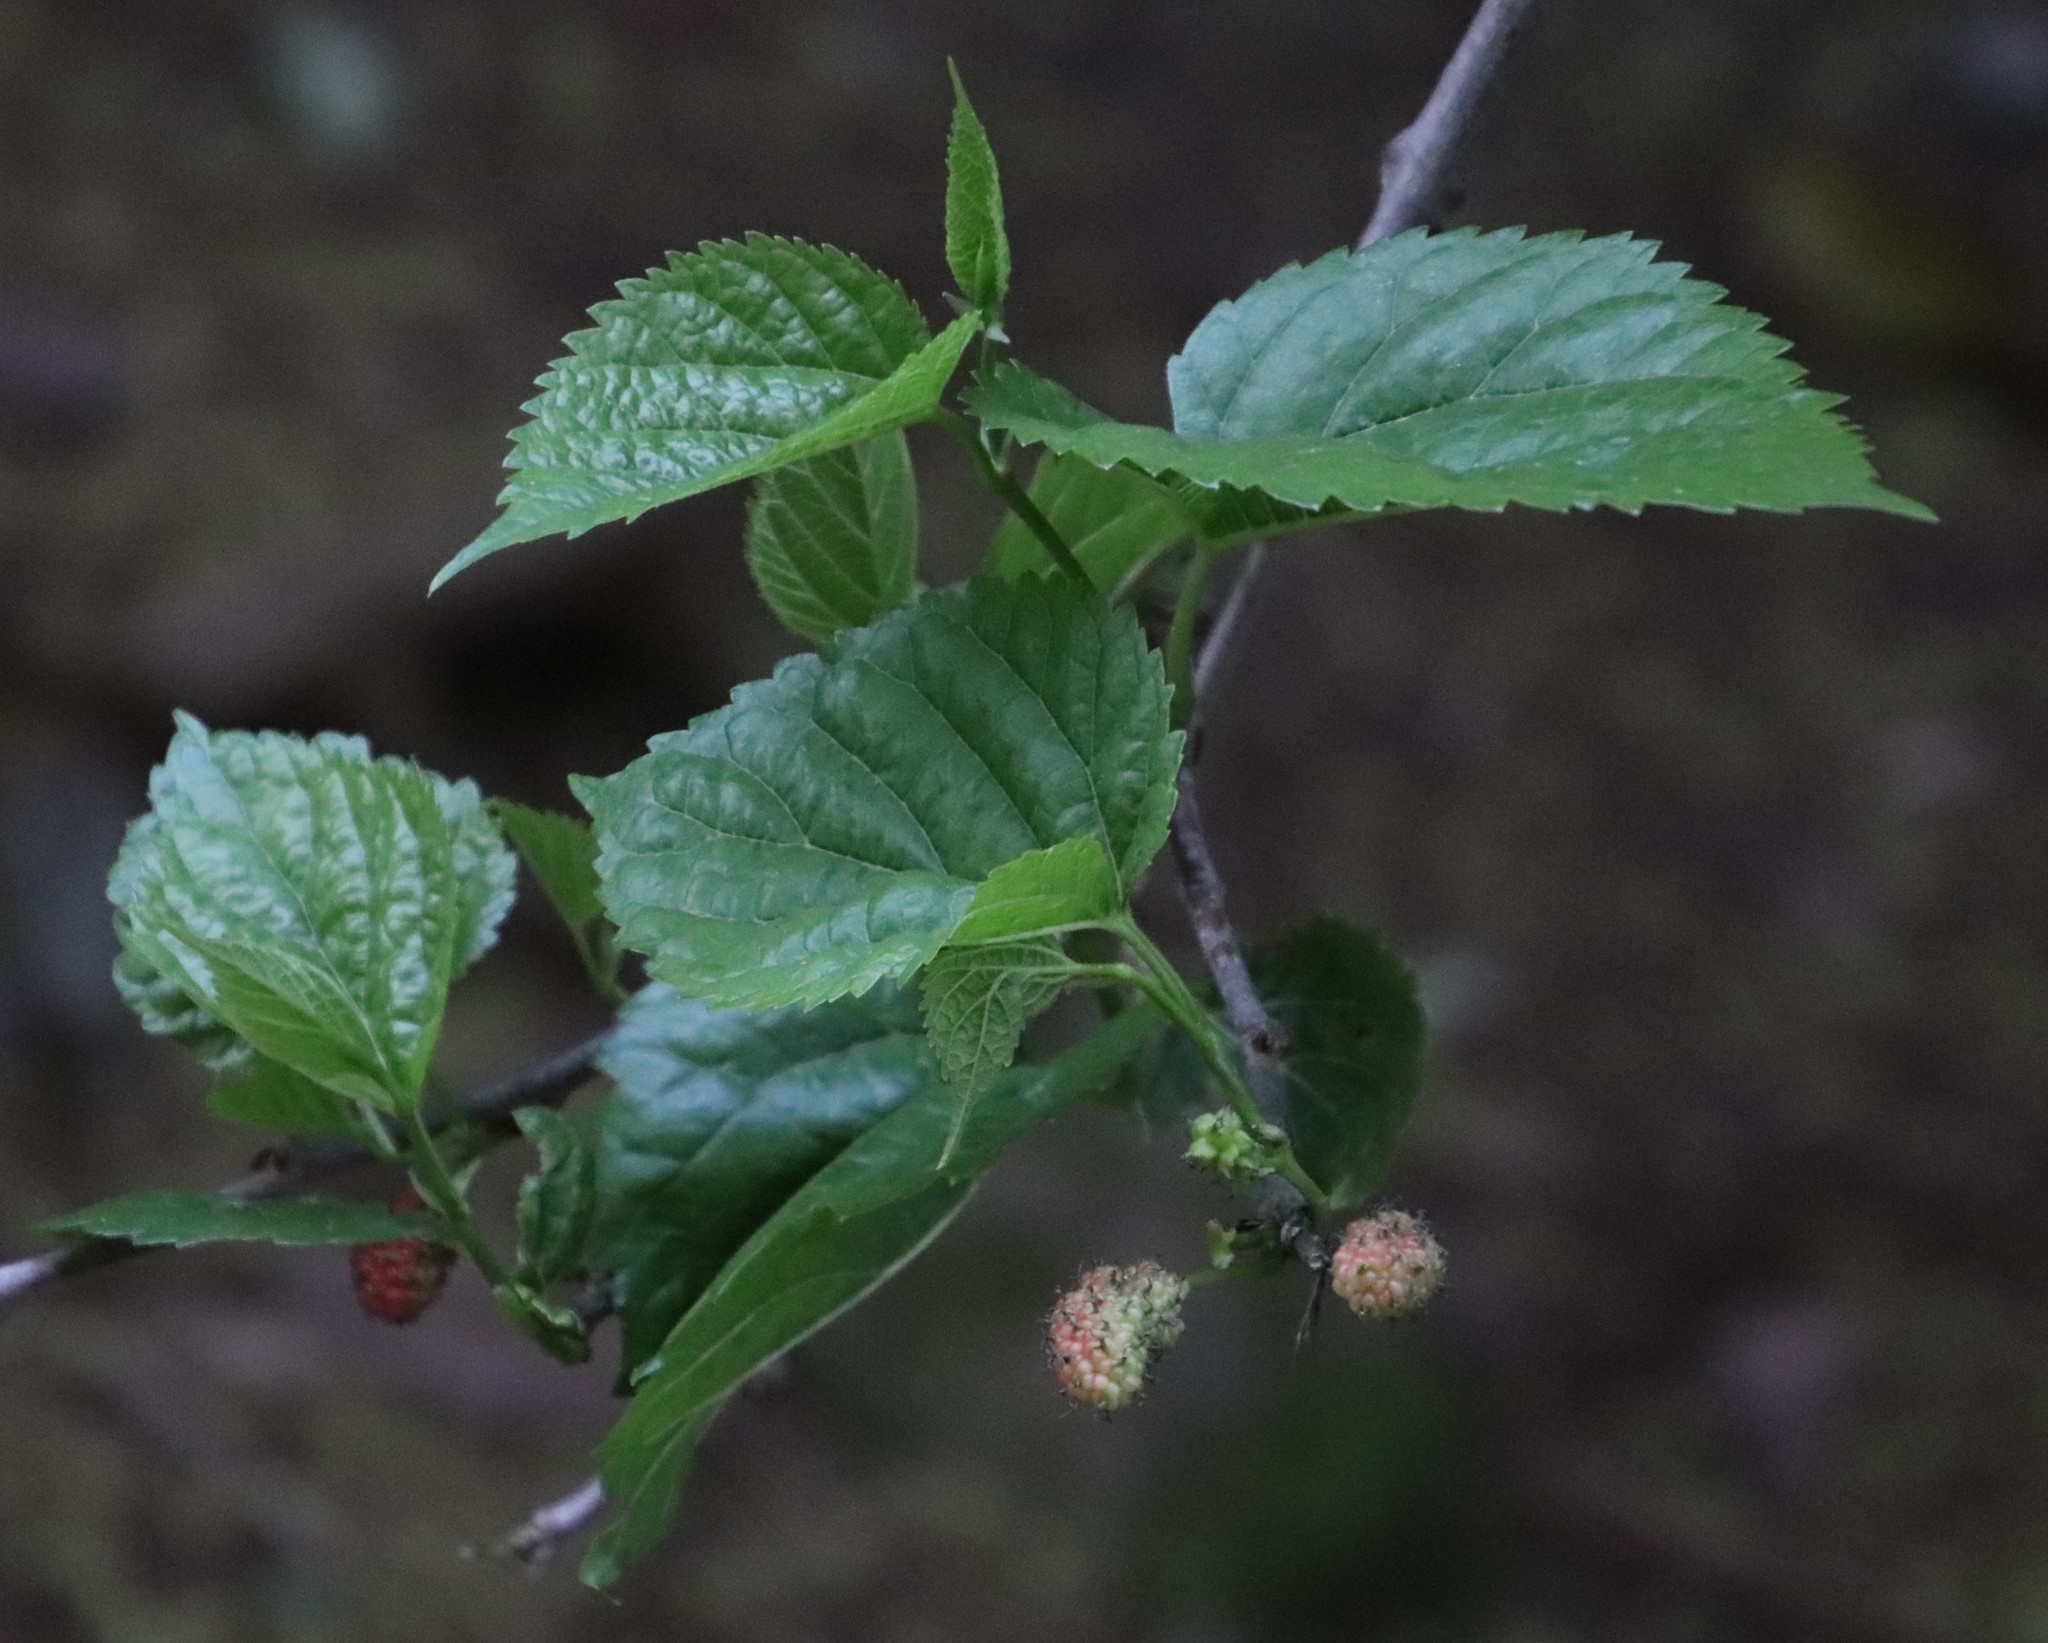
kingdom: Plantae
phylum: Tracheophyta
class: Magnoliopsida
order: Rosales
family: Moraceae
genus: Morus
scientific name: Morus alba
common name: White mulberry
